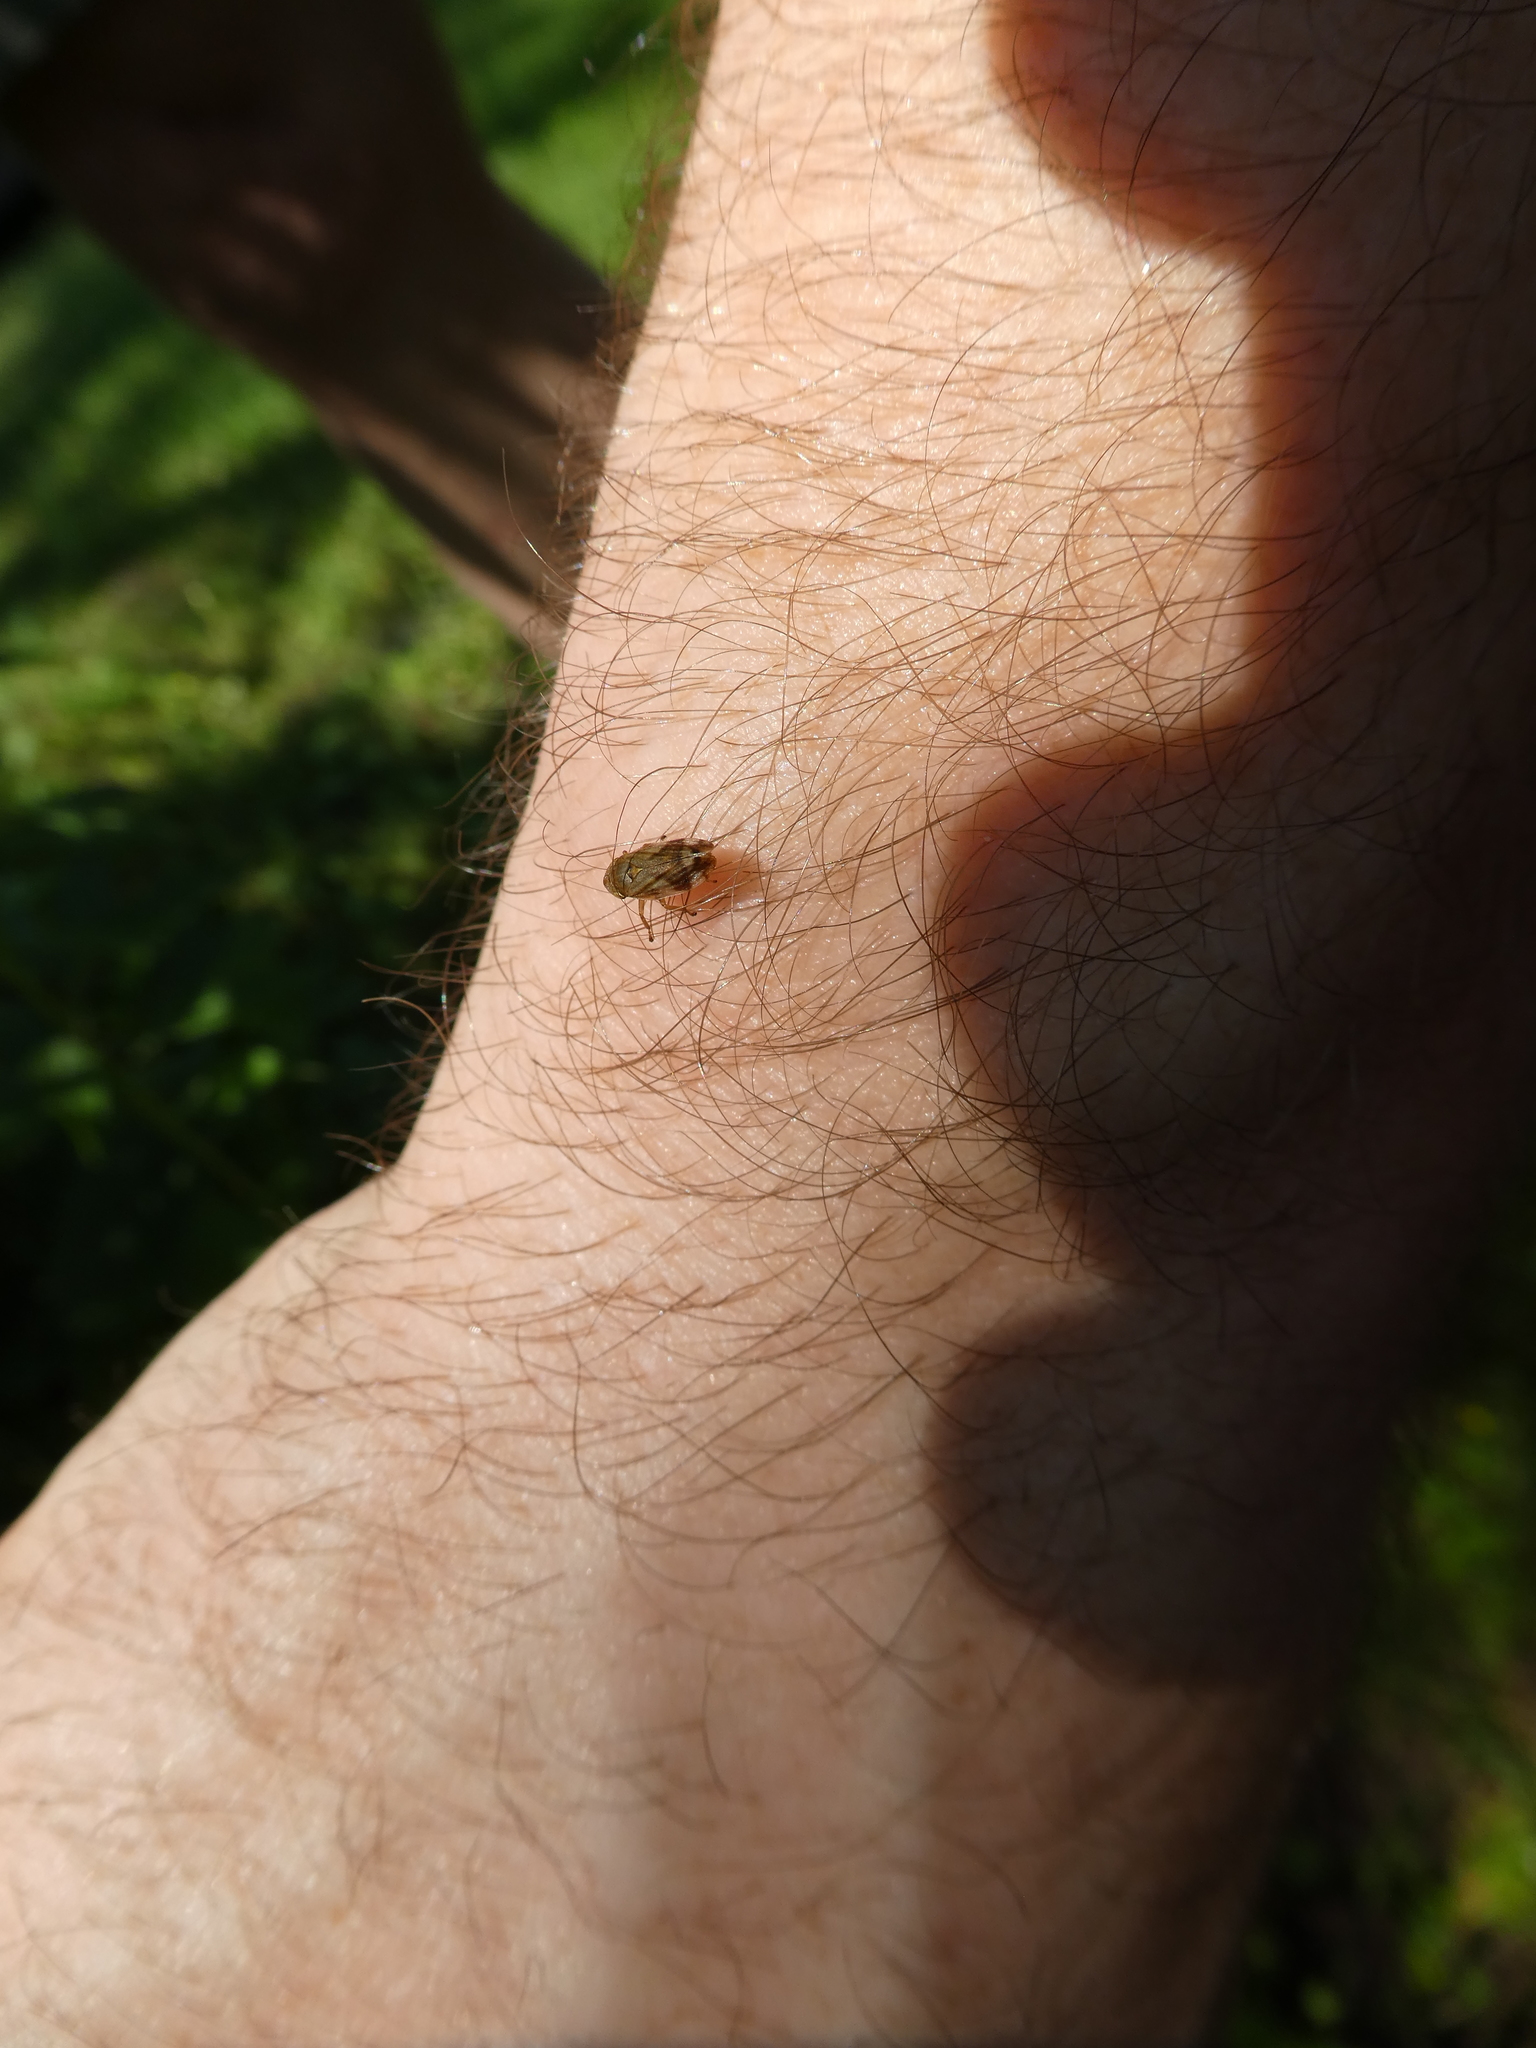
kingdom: Animalia
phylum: Arthropoda
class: Insecta
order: Hemiptera
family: Aphrophoridae
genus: Philaenus
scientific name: Philaenus spumarius
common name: Meadow spittlebug
